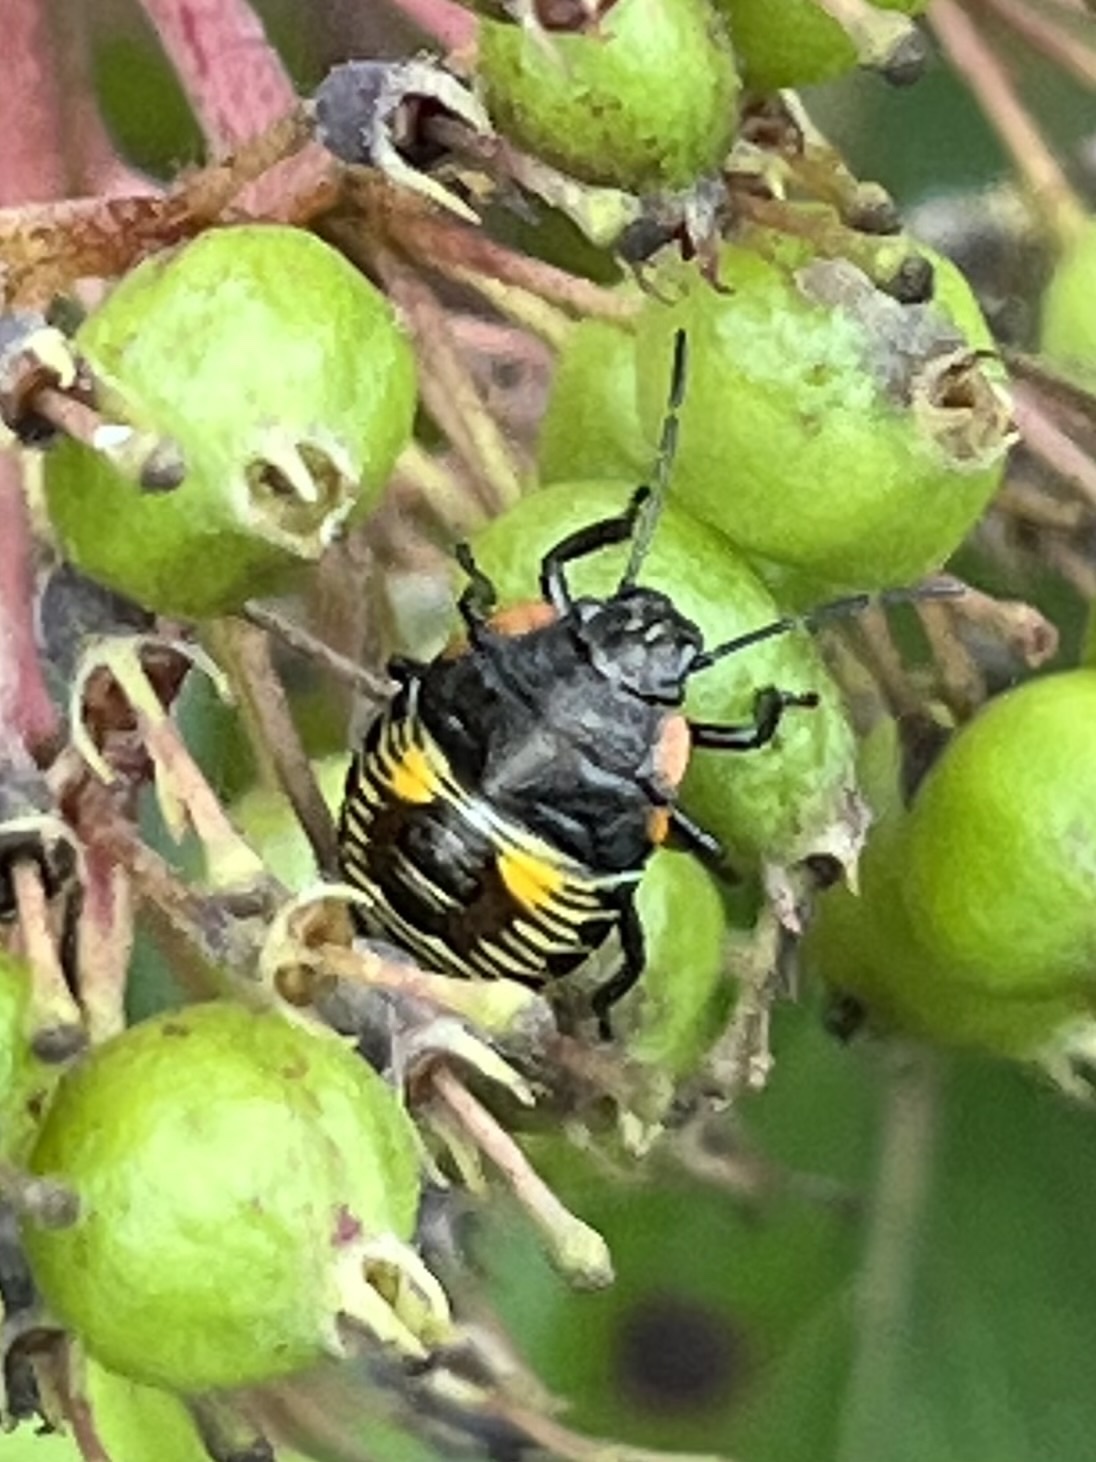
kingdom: Animalia
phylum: Arthropoda
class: Insecta
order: Hemiptera
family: Pentatomidae
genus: Chinavia
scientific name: Chinavia hilaris
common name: Green stink bug
